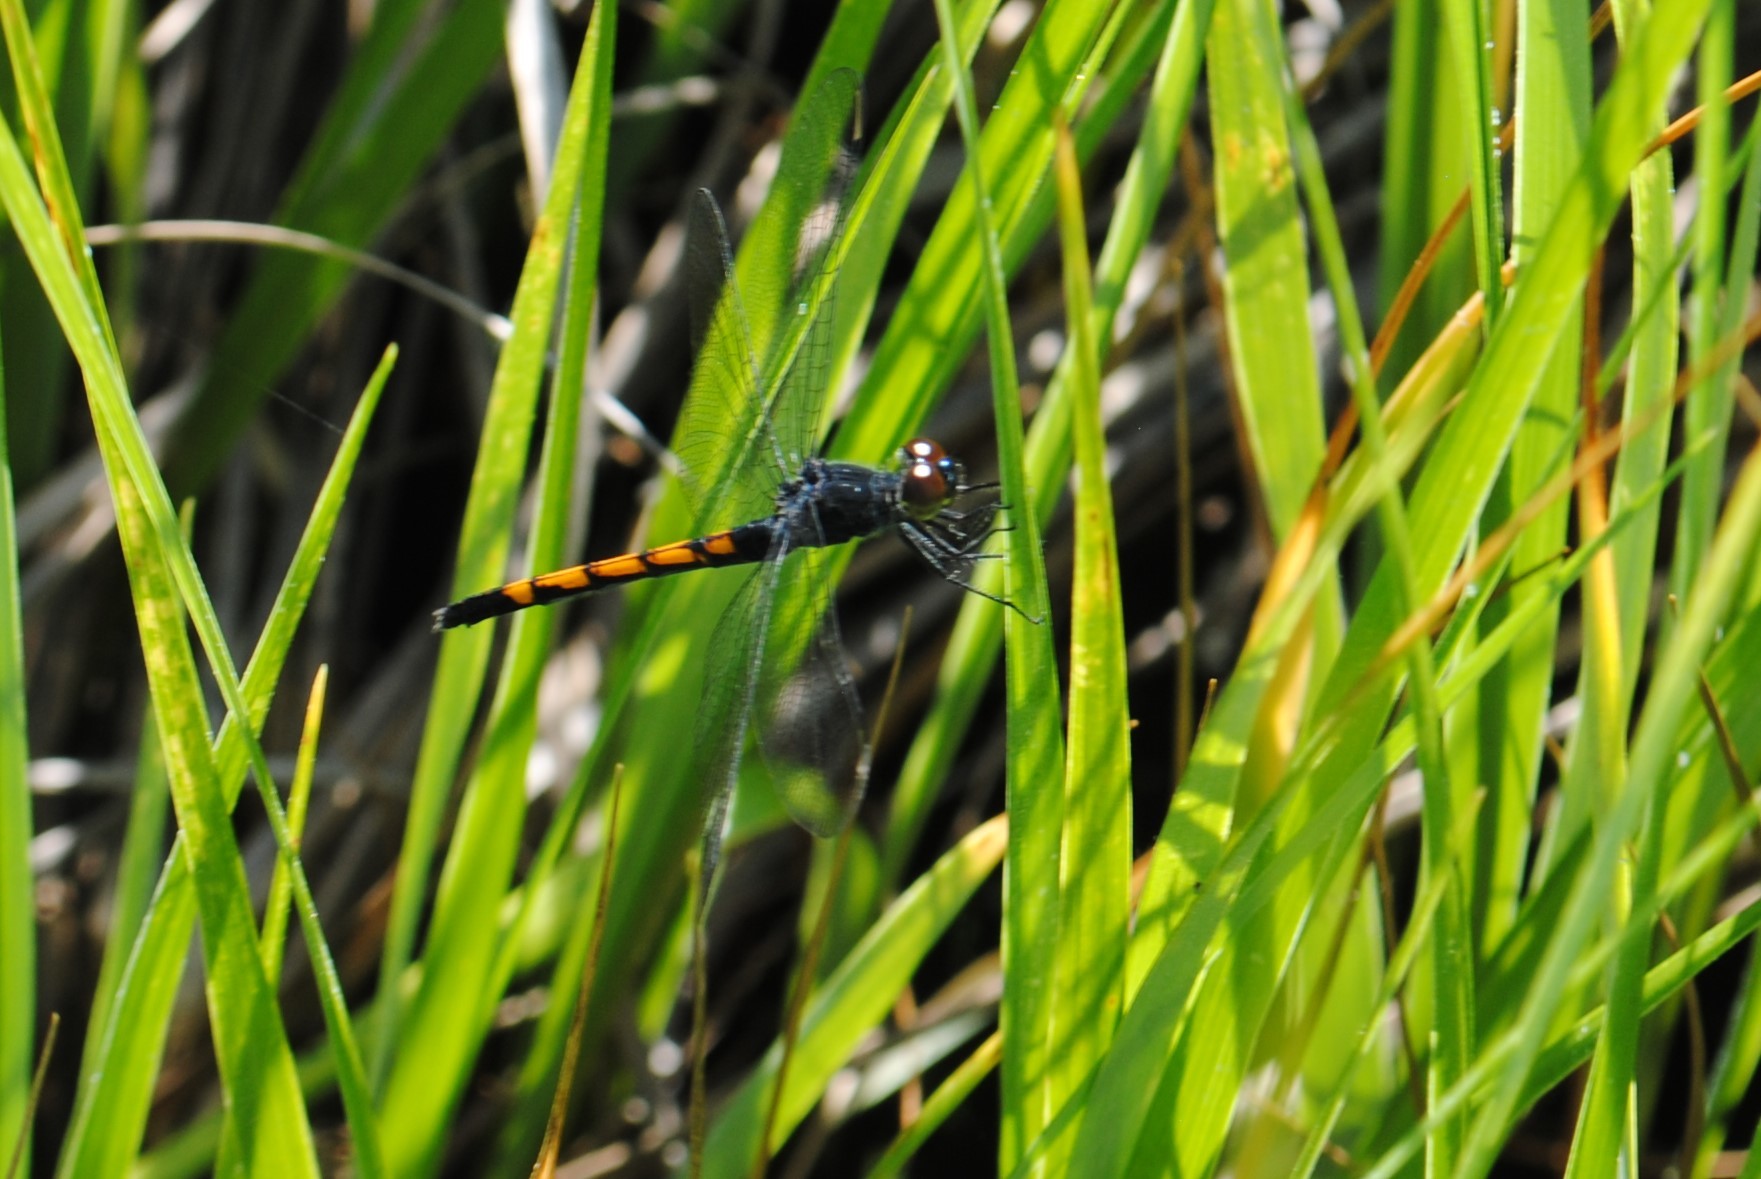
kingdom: Animalia
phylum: Arthropoda
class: Insecta
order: Odonata
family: Libellulidae
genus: Erythrodiplax
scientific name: Erythrodiplax berenice
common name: Seaside dragonlet
